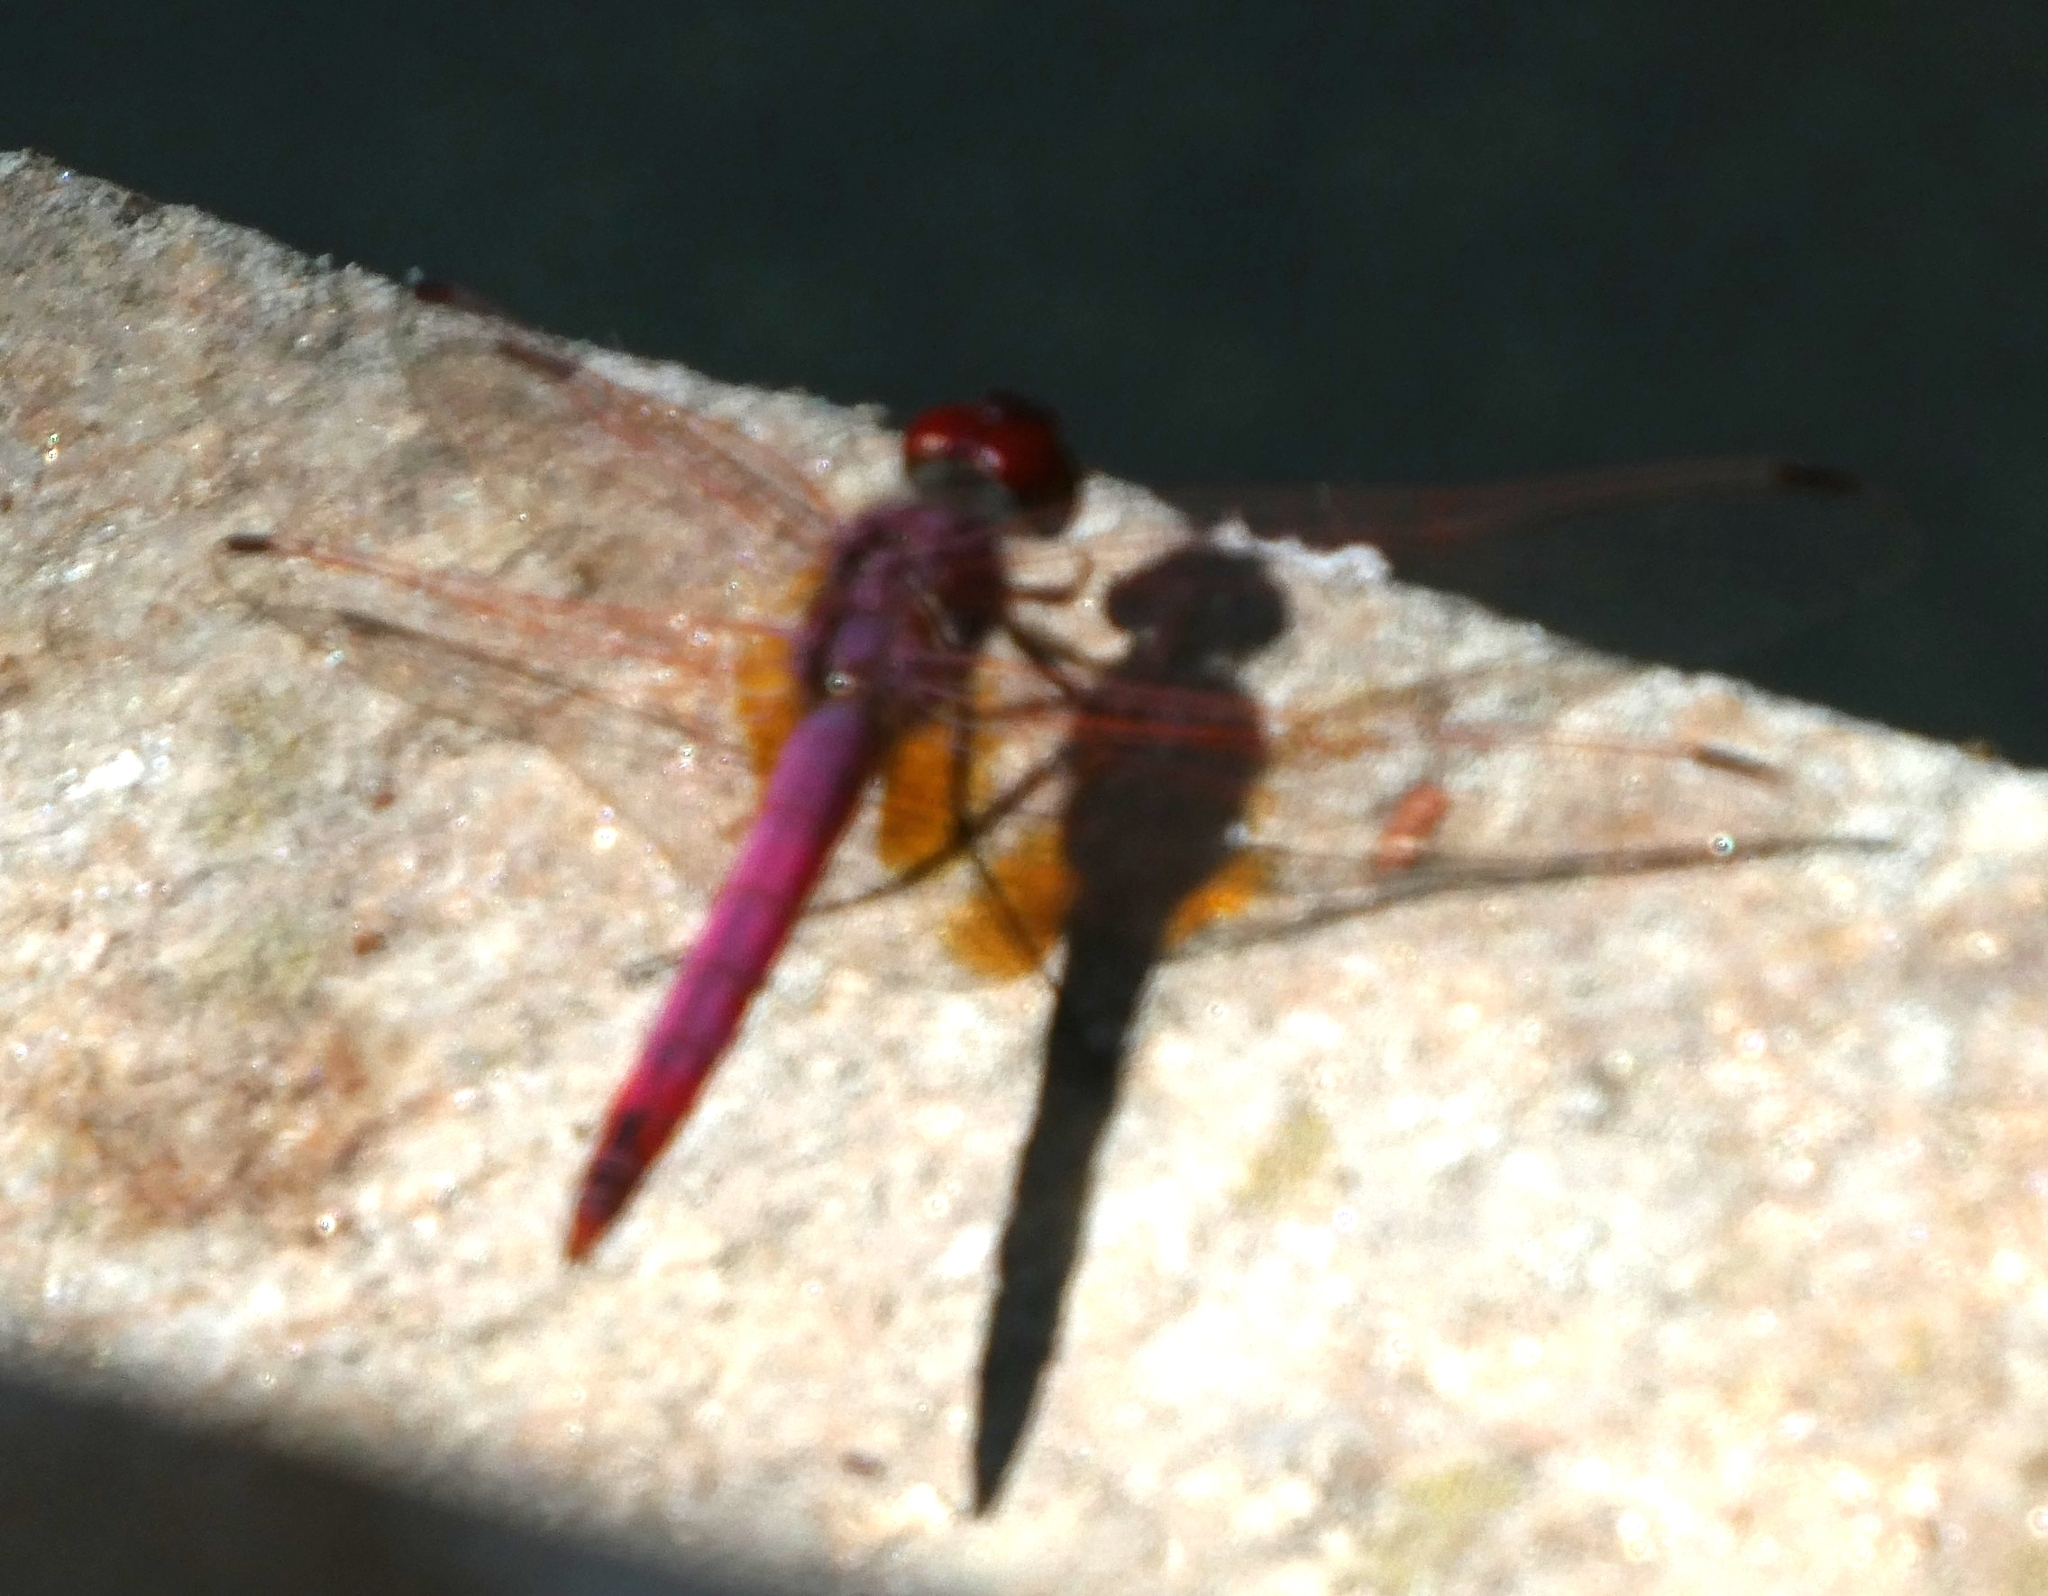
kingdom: Animalia
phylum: Arthropoda
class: Insecta
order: Odonata
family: Libellulidae
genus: Trithemis
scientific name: Trithemis annulata
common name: Violet dropwing
